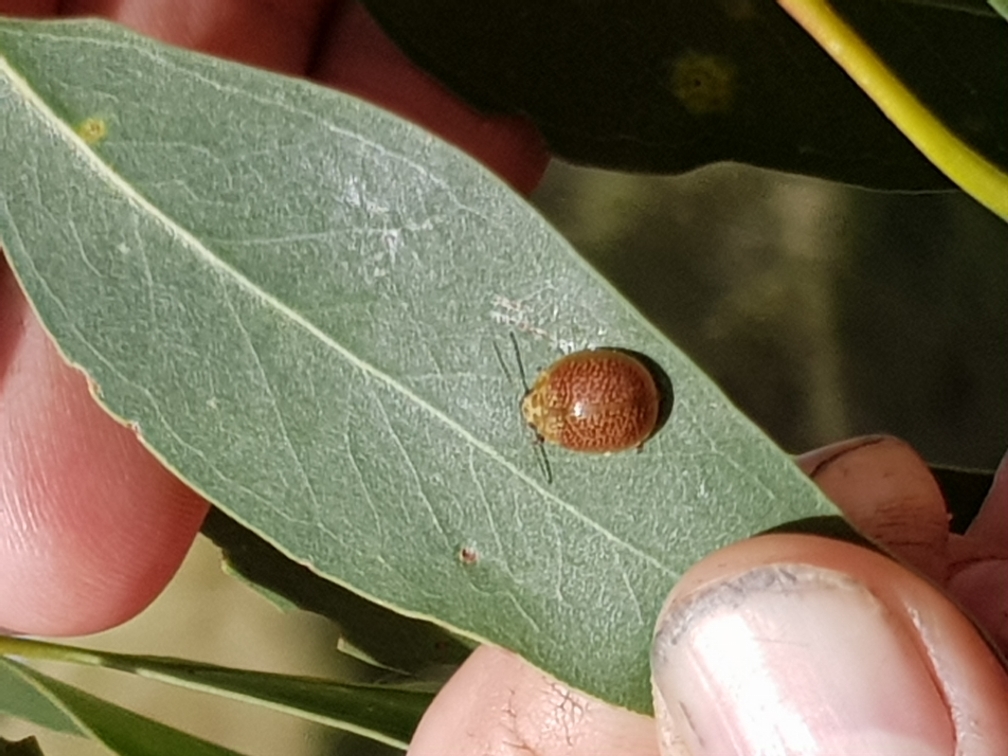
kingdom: Animalia
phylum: Arthropoda
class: Insecta
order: Coleoptera
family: Chrysomelidae
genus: Paropsisterna
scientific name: Paropsisterna cloelia
